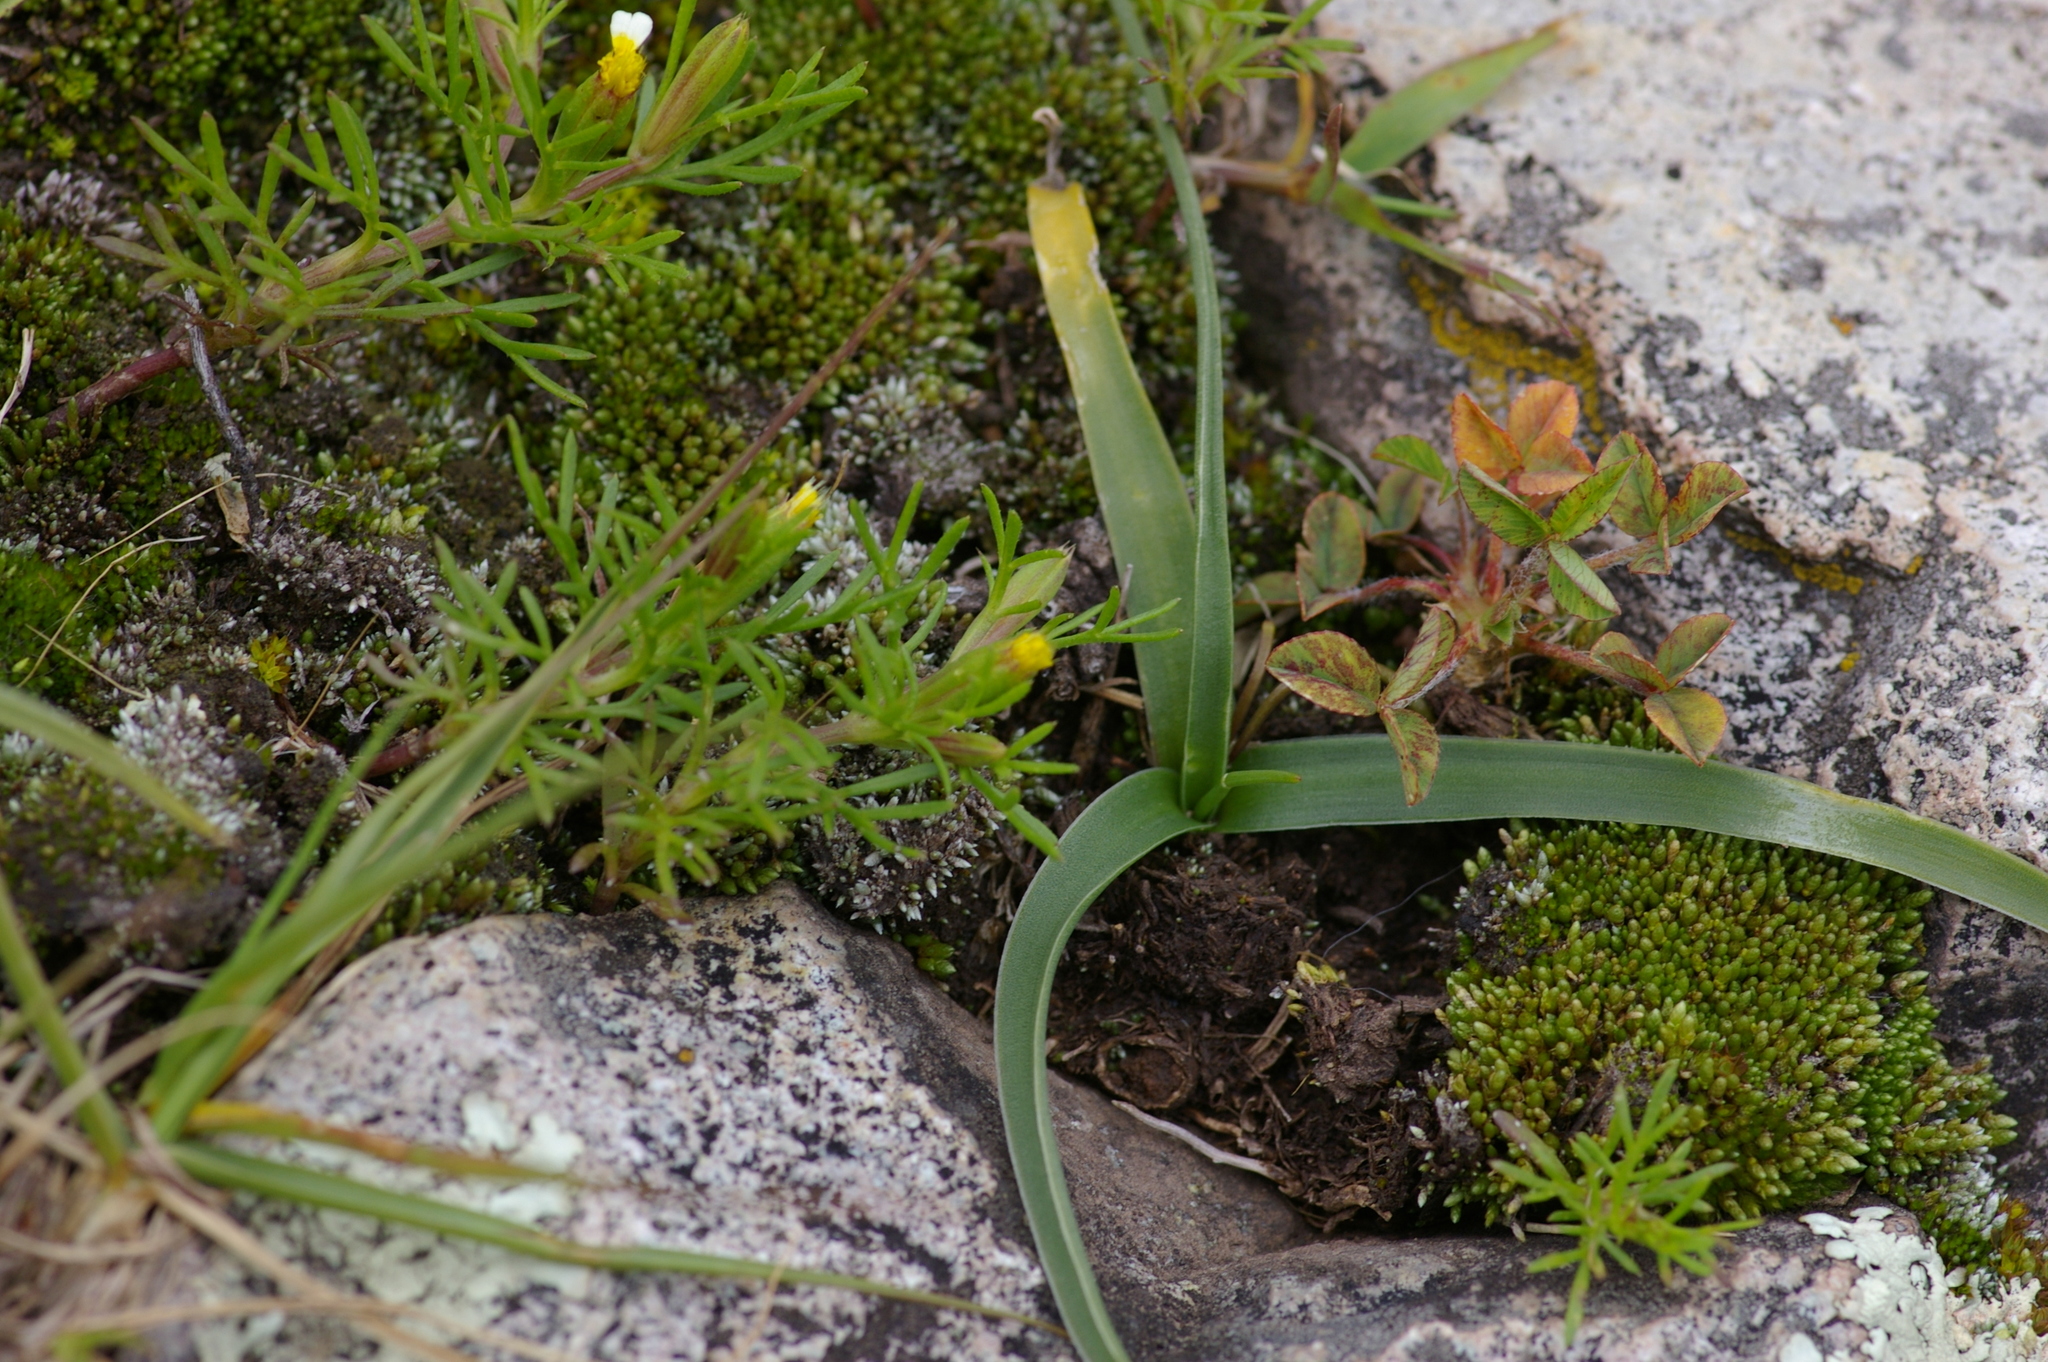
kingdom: Plantae
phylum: Tracheophyta
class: Liliopsida
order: Asparagales
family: Asparagaceae
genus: Oziroe
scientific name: Oziroe acaulis
